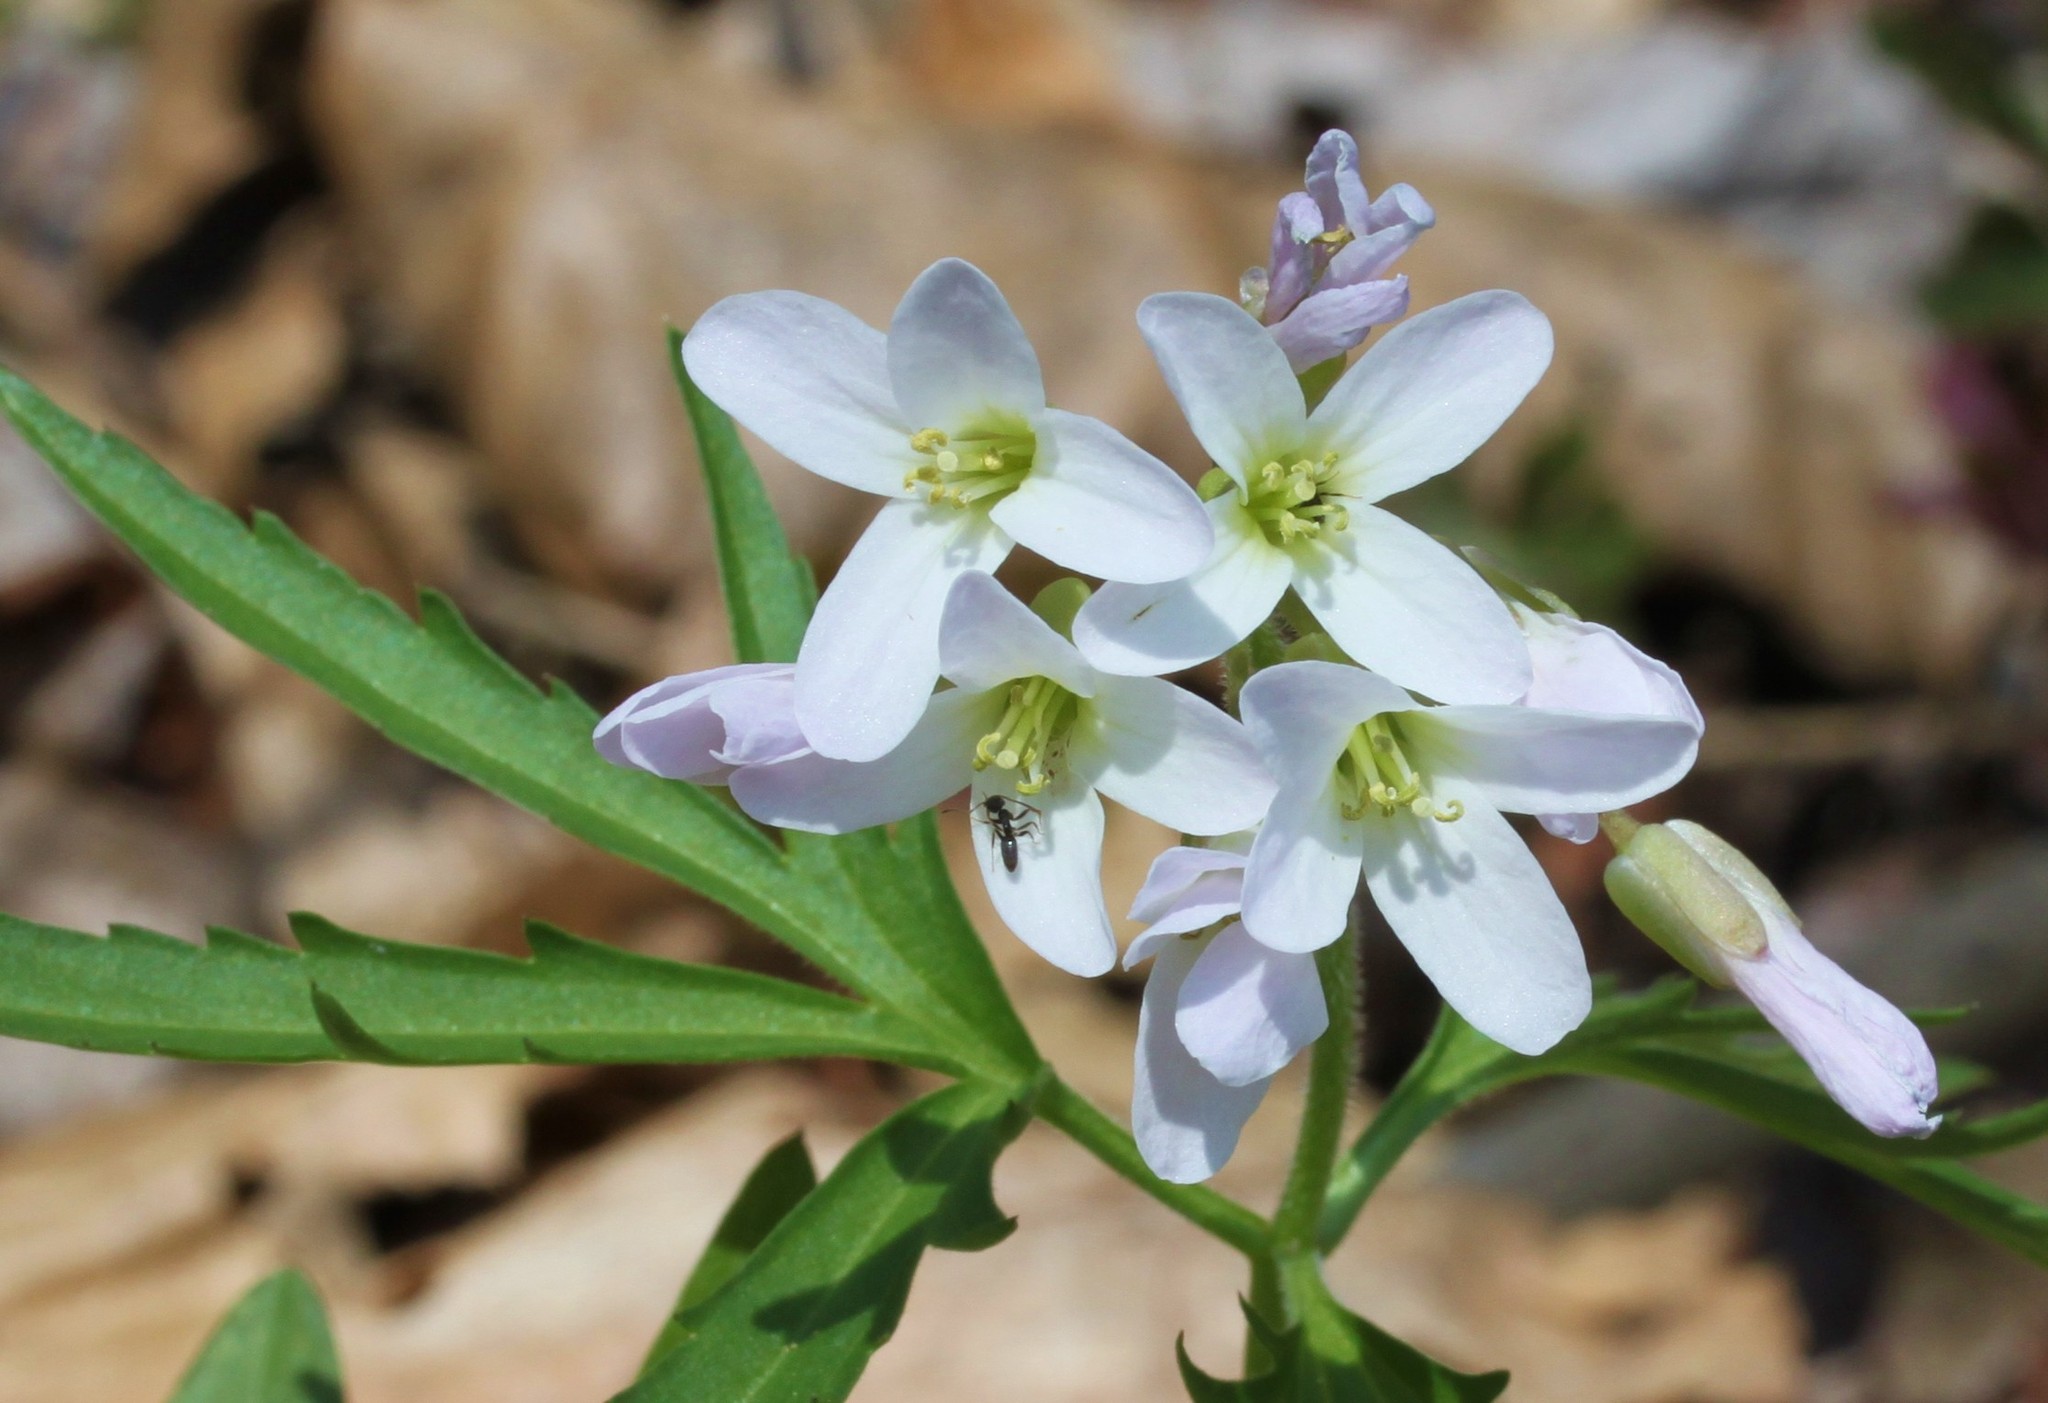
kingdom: Plantae
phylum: Tracheophyta
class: Magnoliopsida
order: Brassicales
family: Brassicaceae
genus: Cardamine
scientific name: Cardamine concatenata
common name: Cut-leaf toothcup
